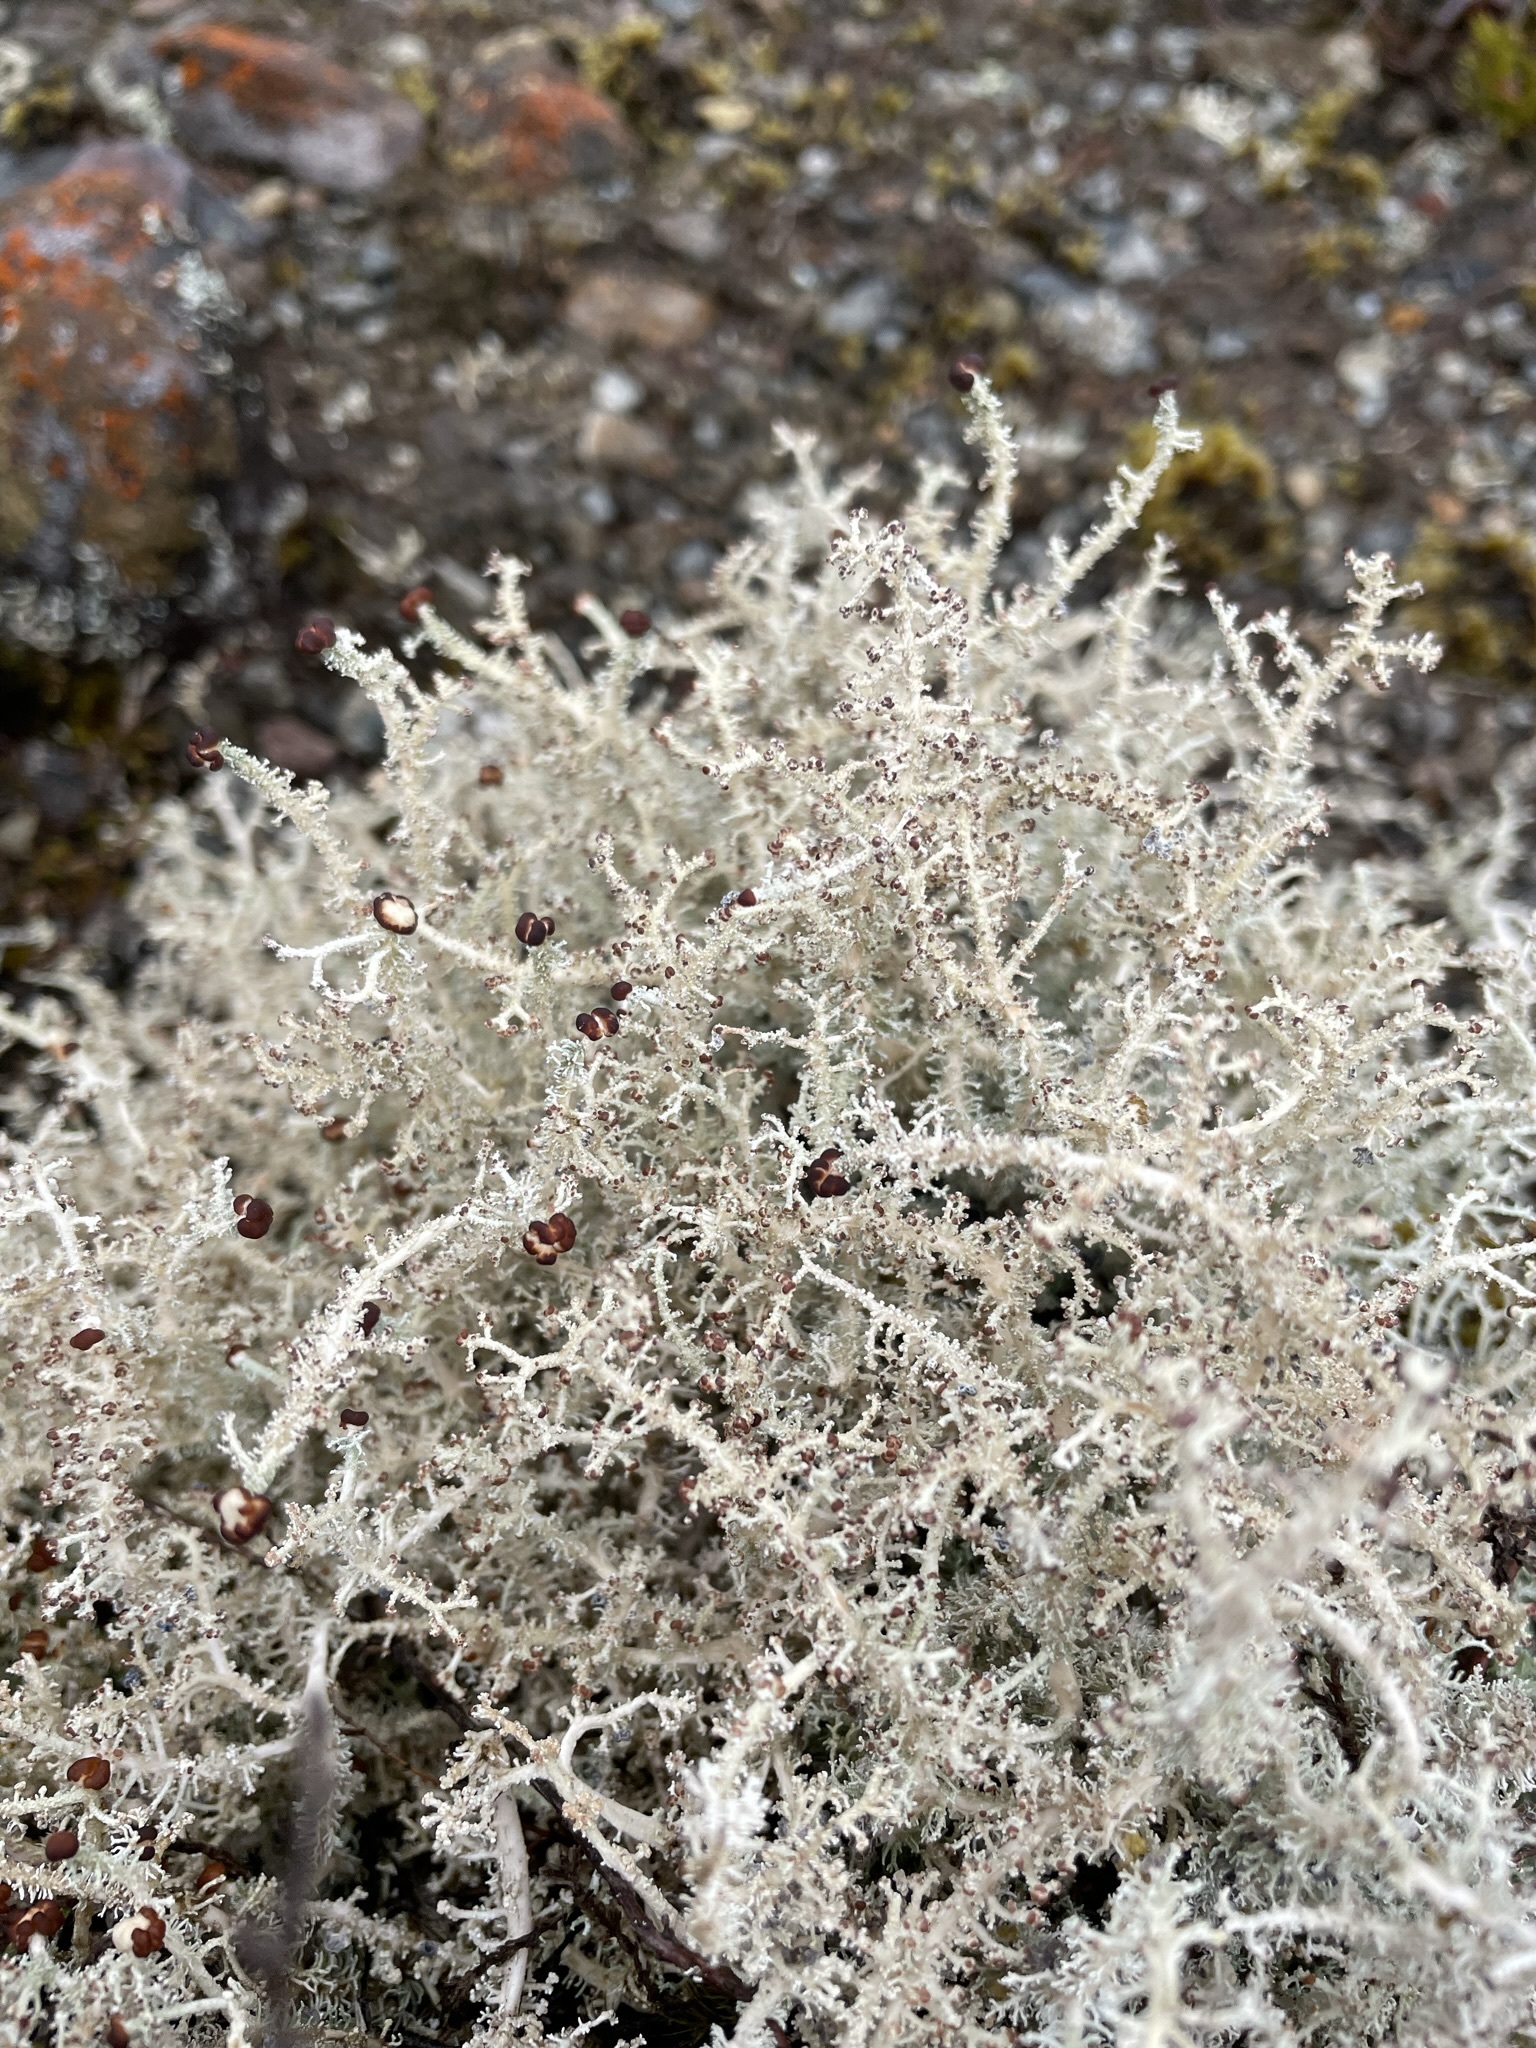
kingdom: Fungi
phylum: Ascomycota
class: Lecanoromycetes
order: Lecanorales
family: Stereocaulaceae
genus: Stereocaulon
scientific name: Stereocaulon ramulosum
